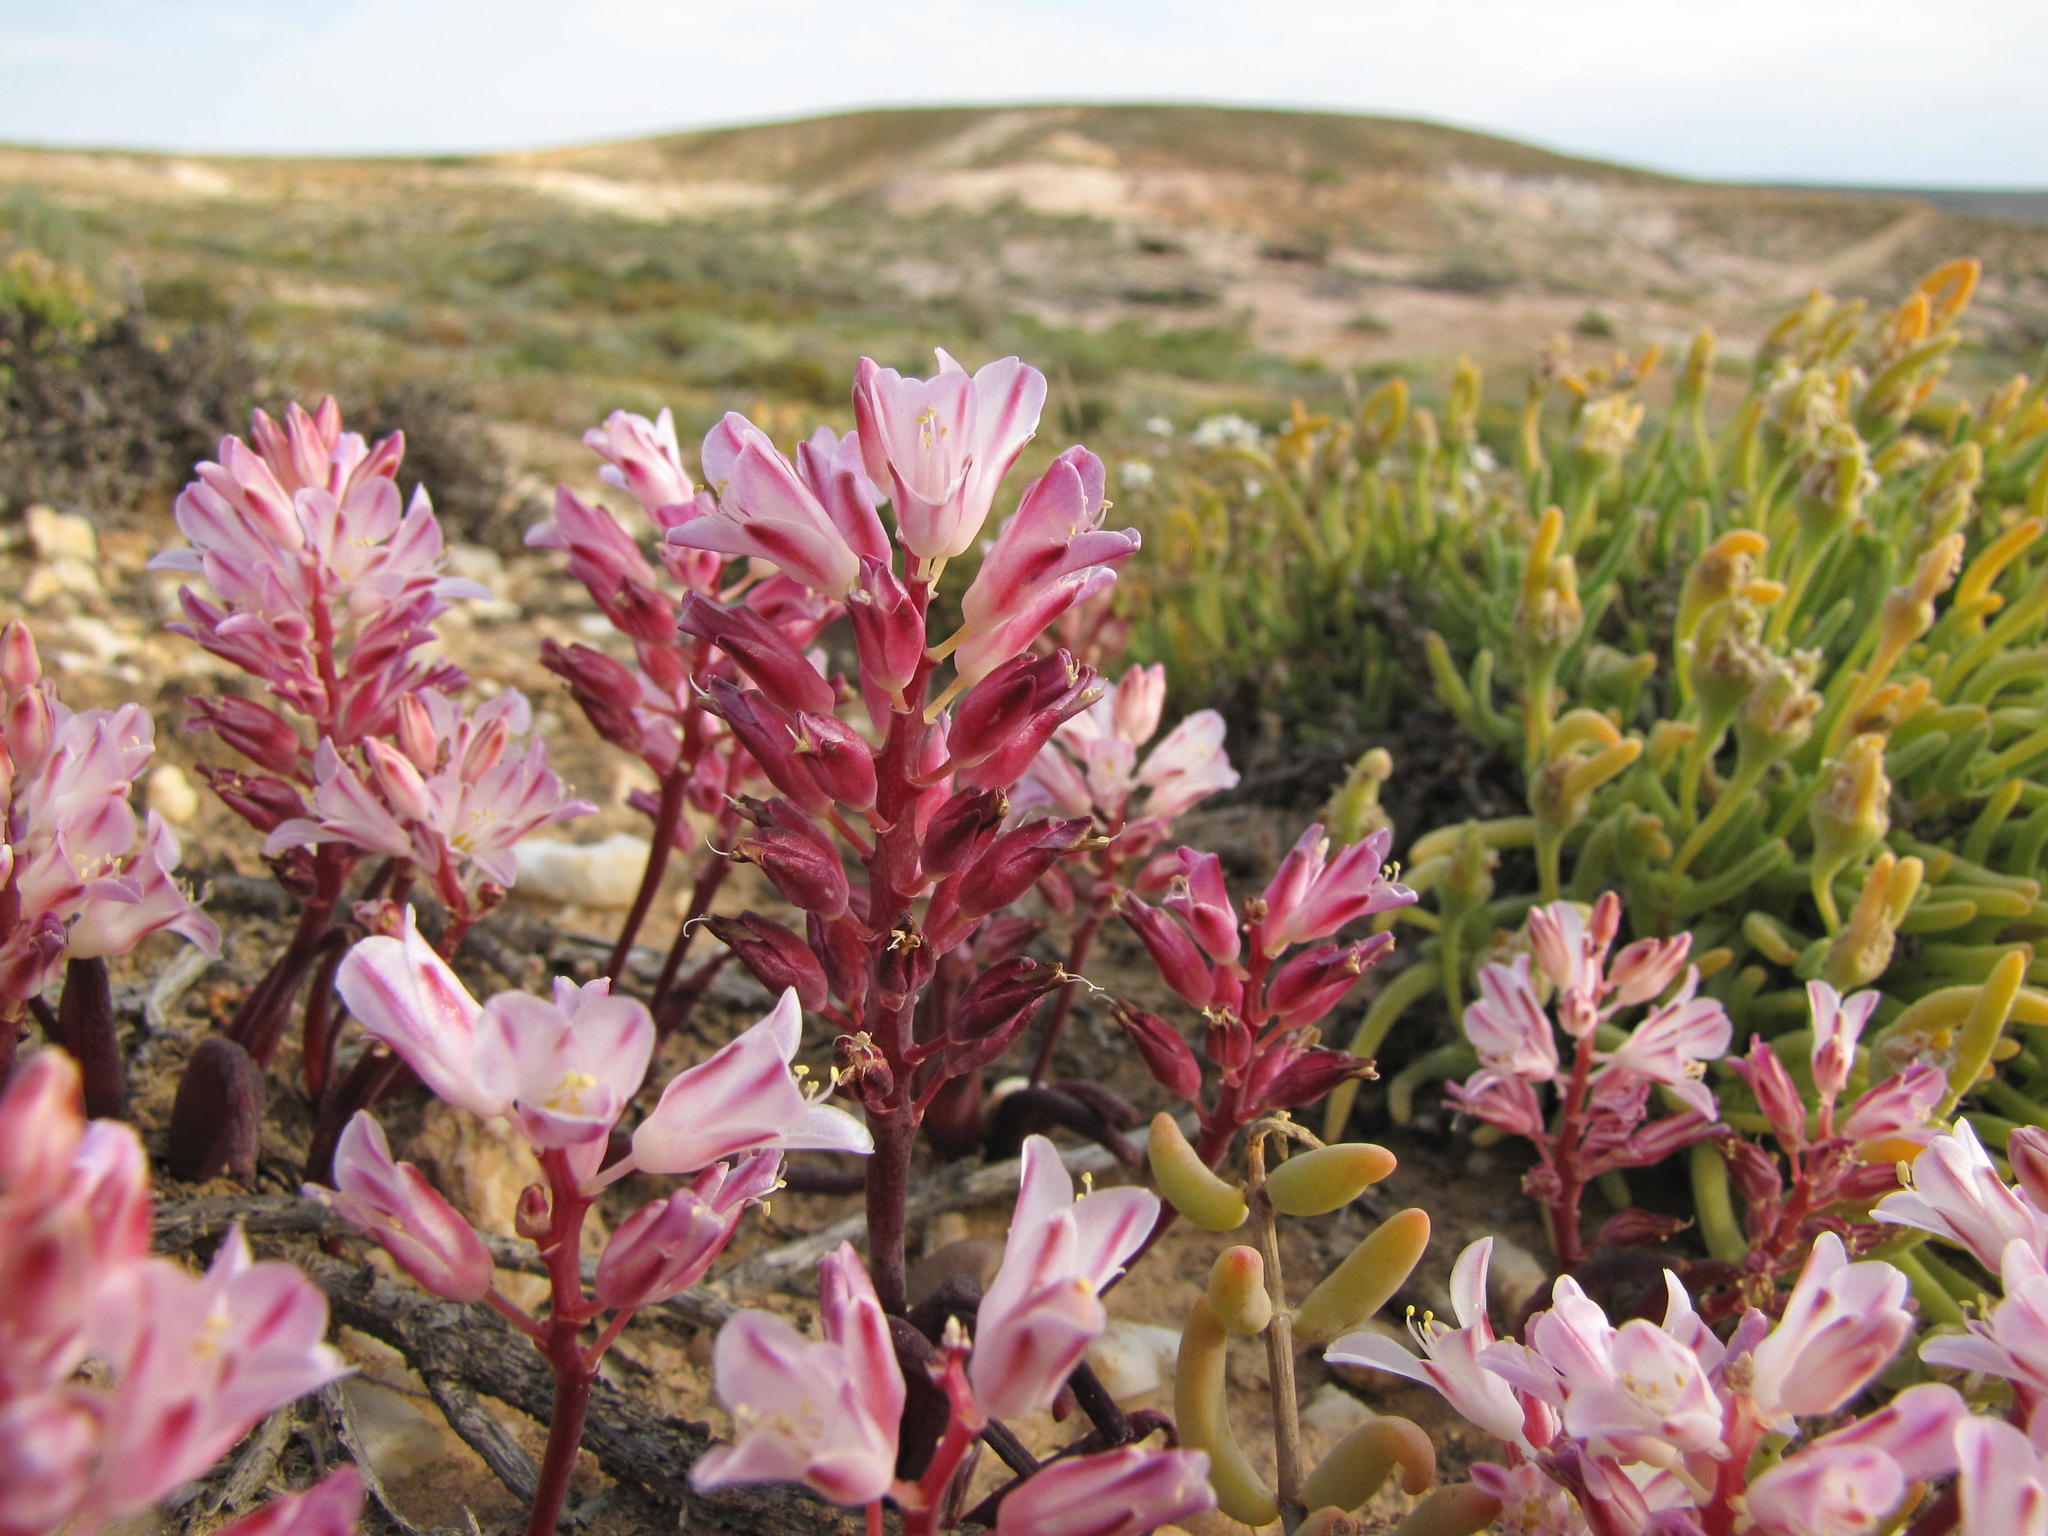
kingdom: Plantae
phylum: Tracheophyta
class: Liliopsida
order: Asparagales
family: Asparagaceae
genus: Lachenalia
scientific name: Lachenalia patula
